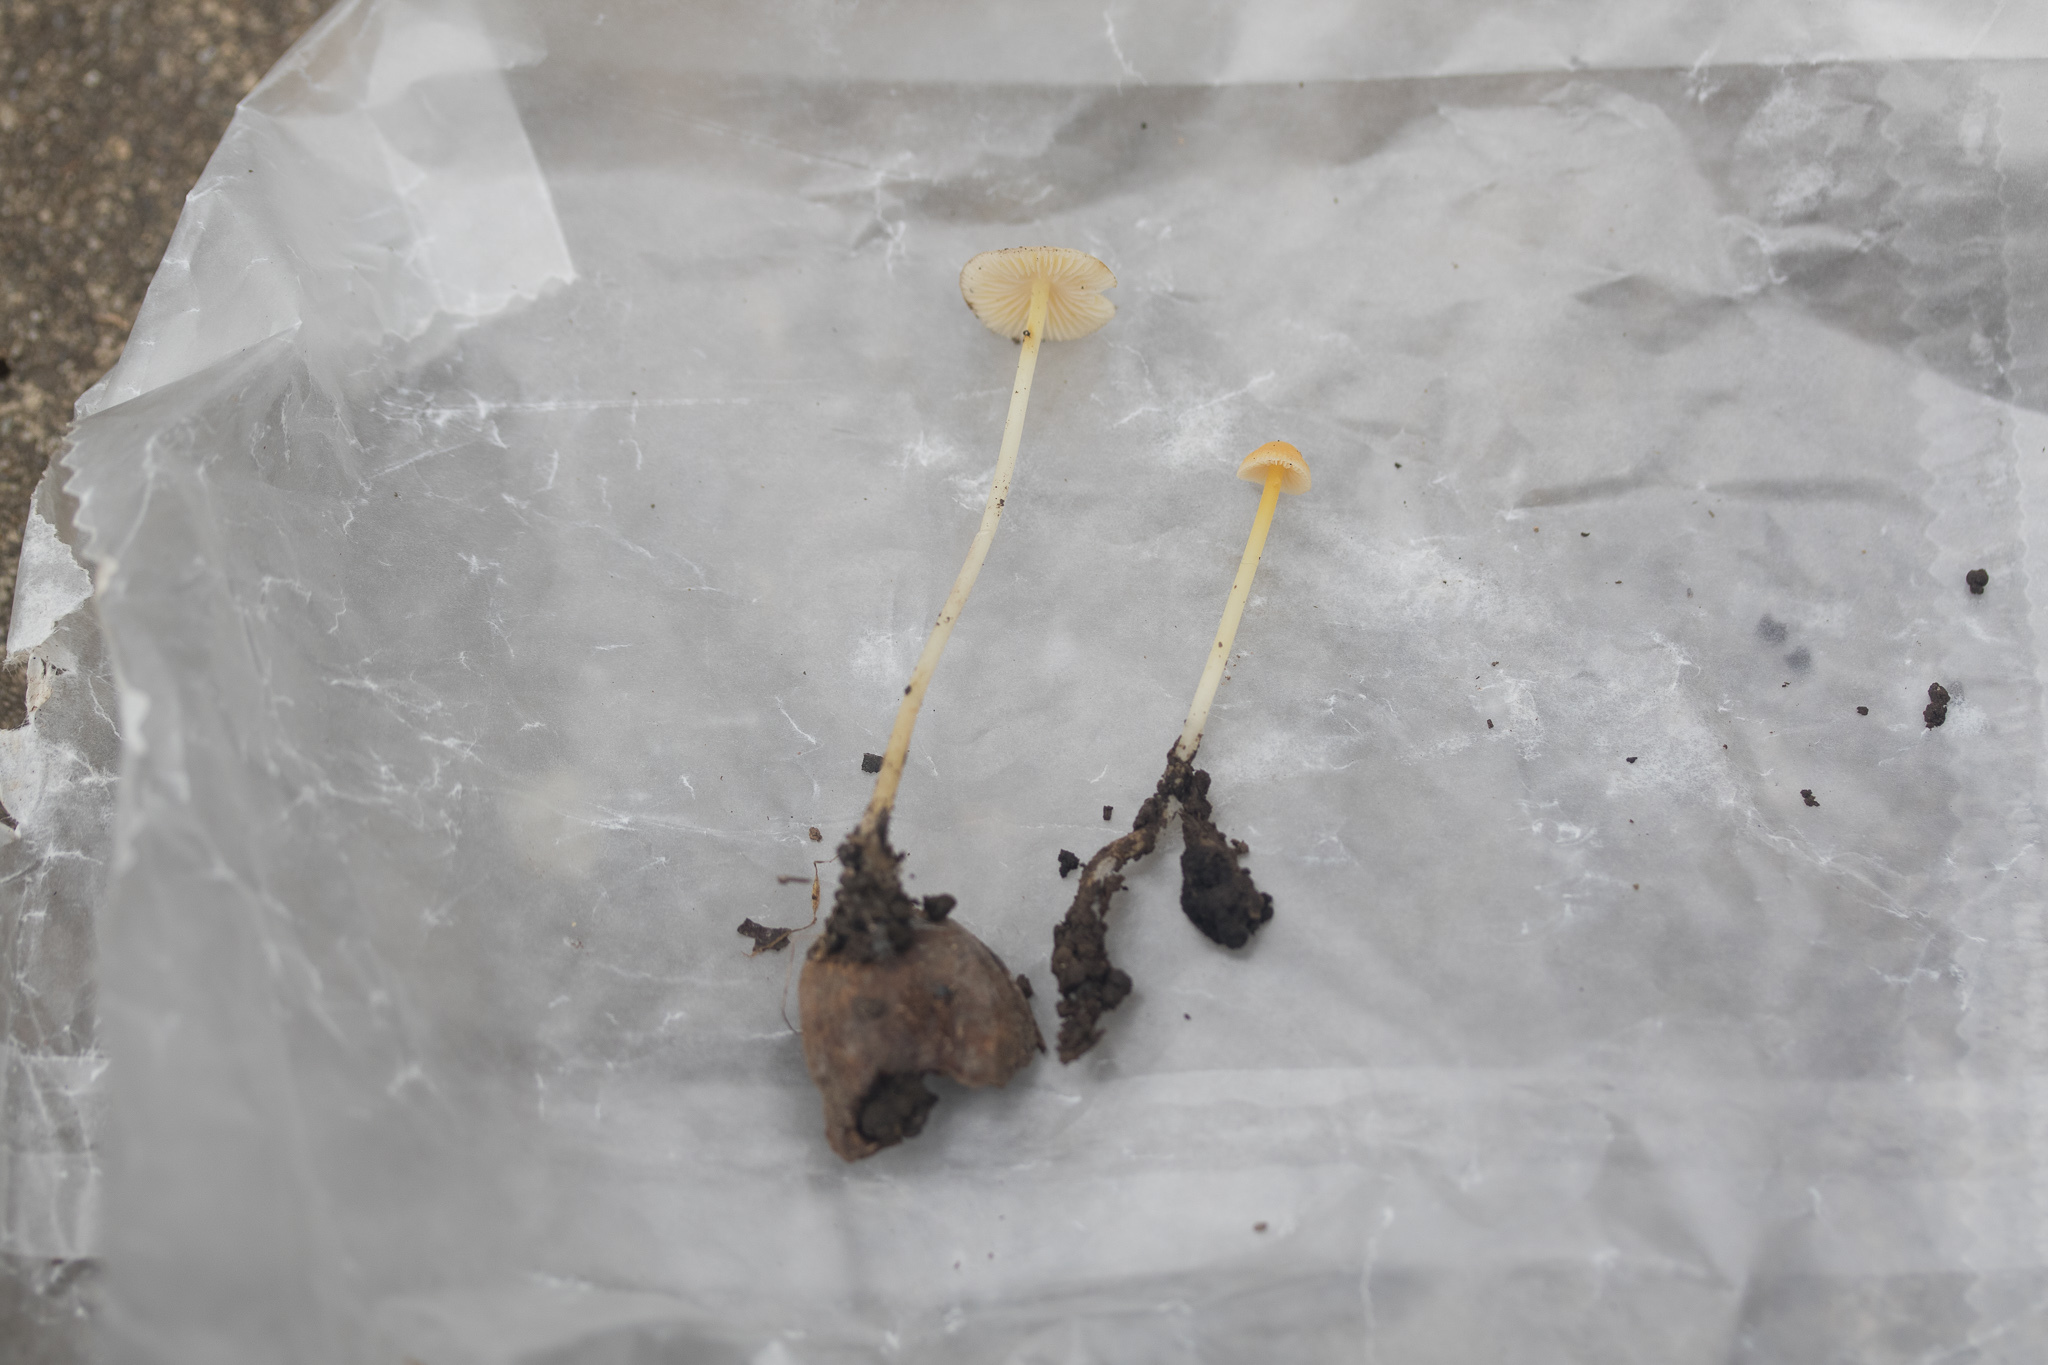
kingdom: Fungi
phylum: Basidiomycota
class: Agaricomycetes
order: Agaricales
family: Mycenaceae
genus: Mycena
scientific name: Mycena crocea
